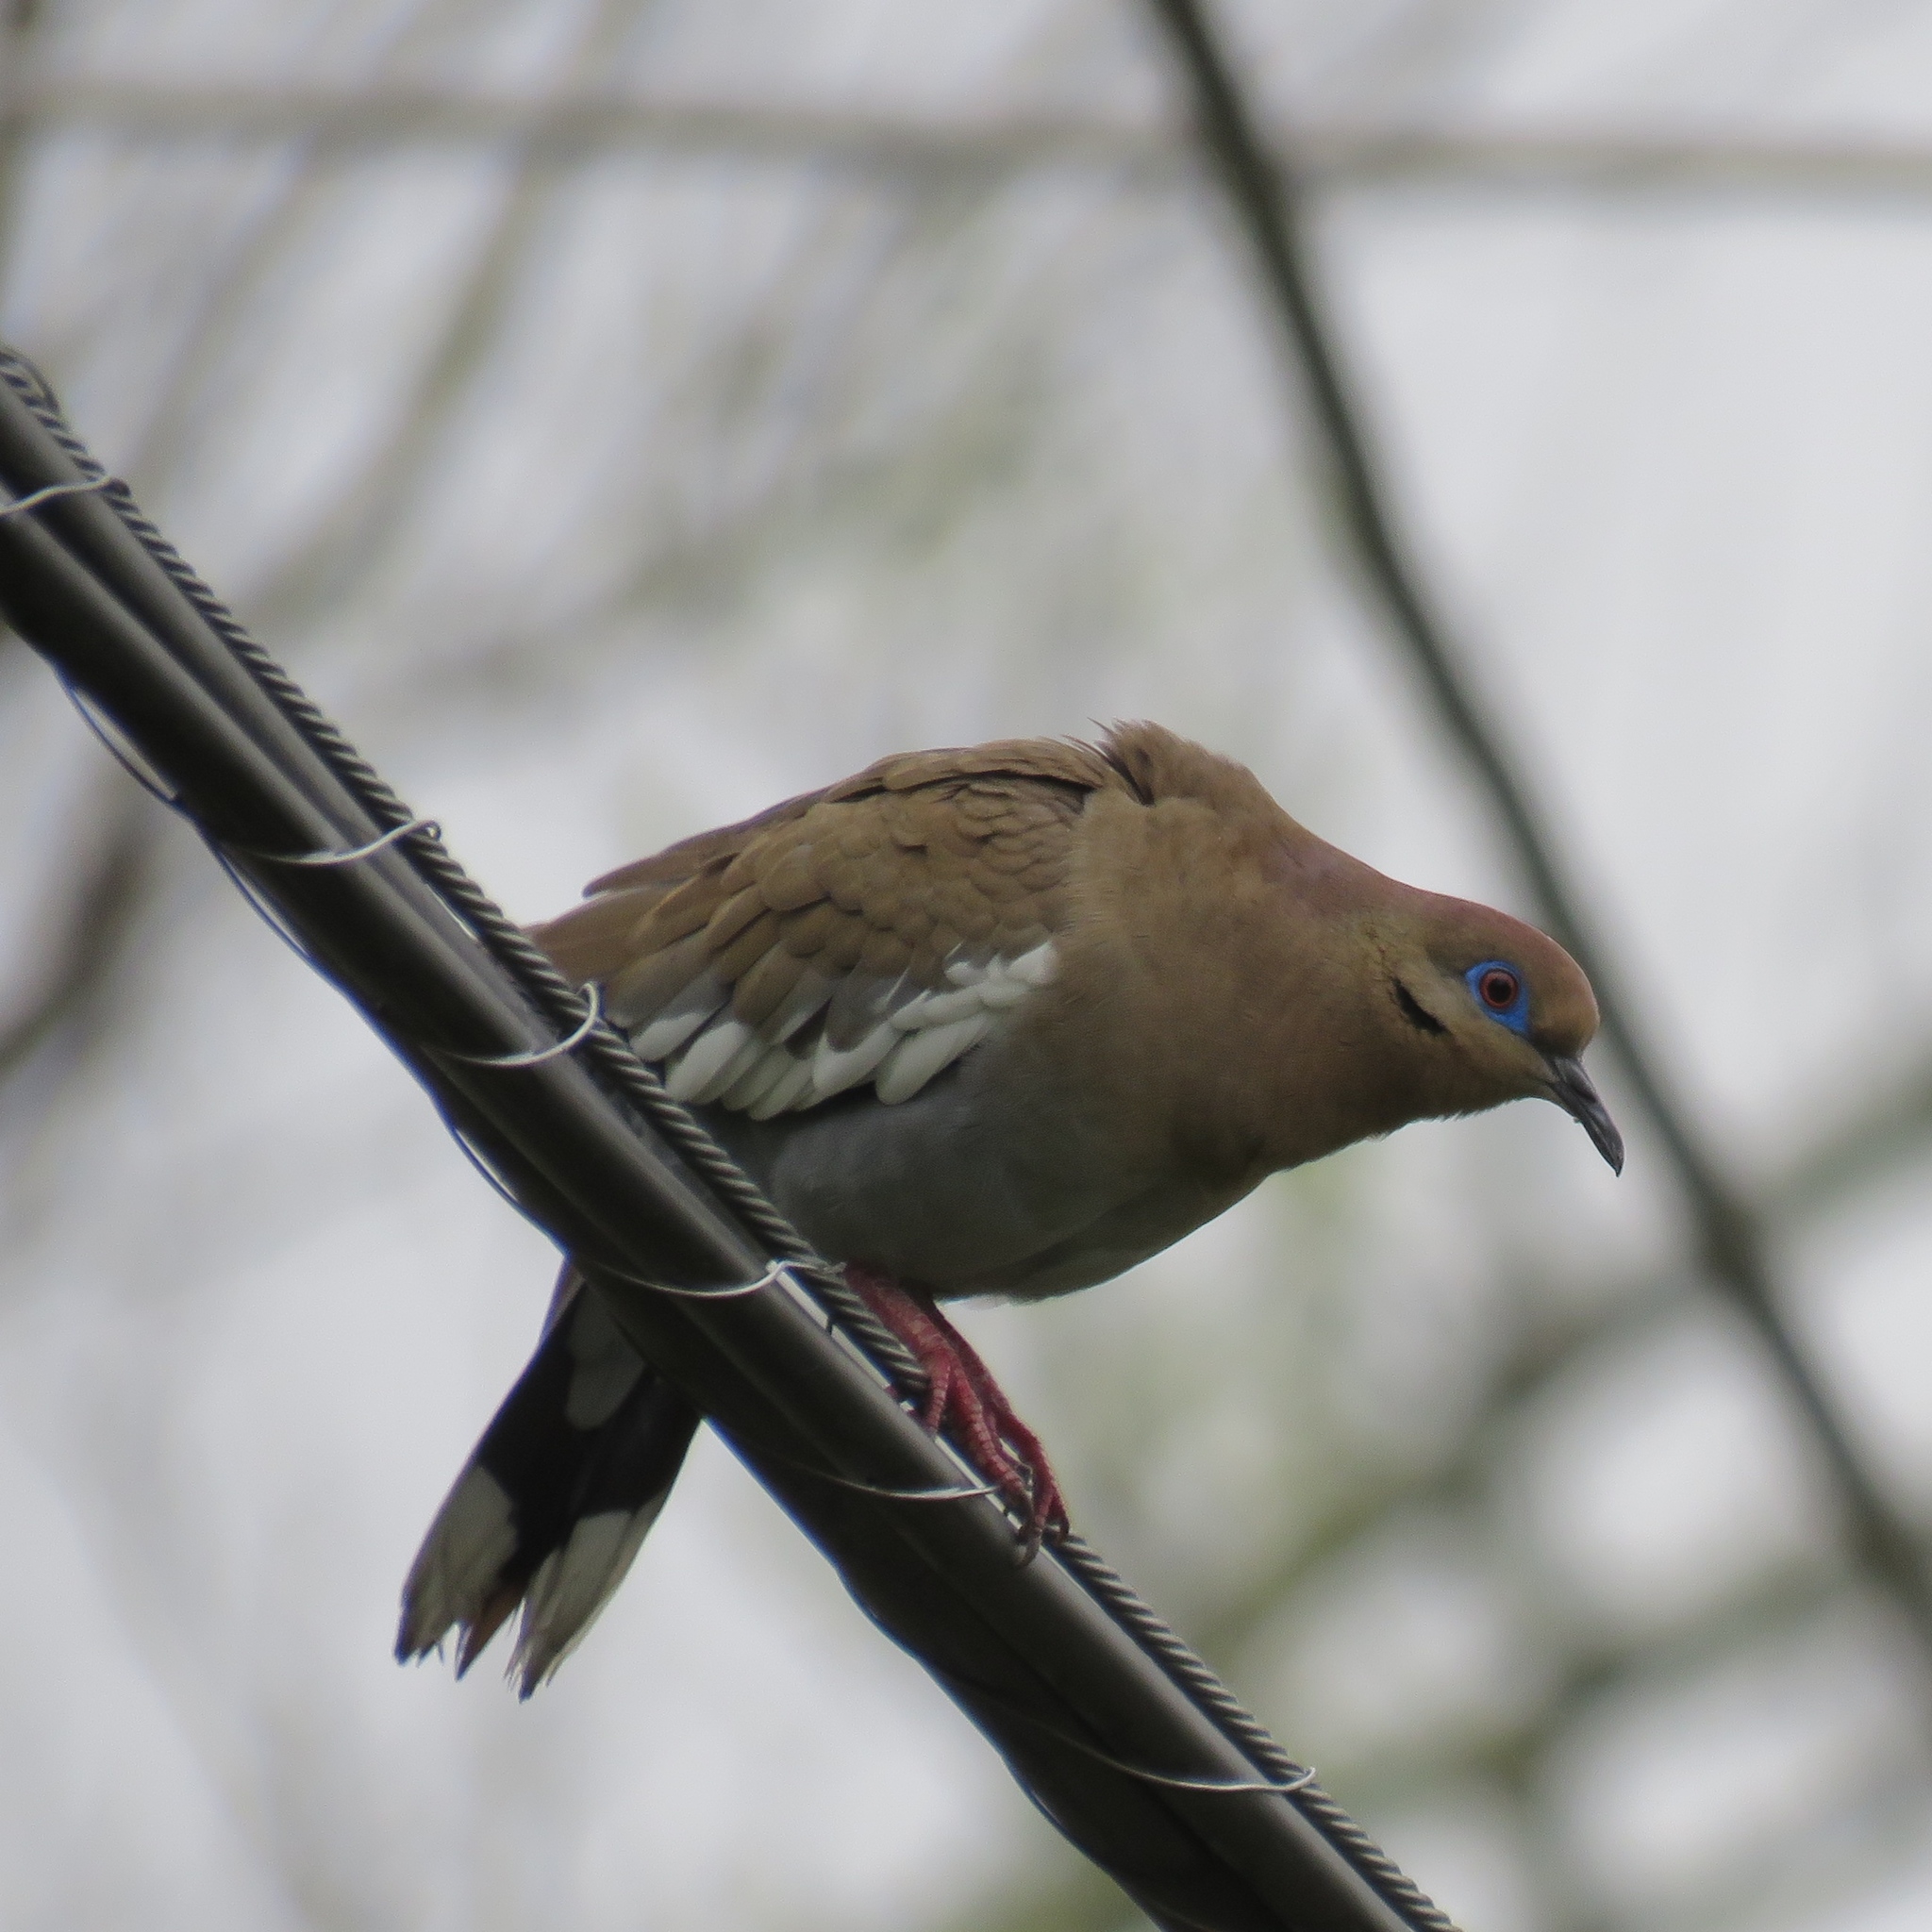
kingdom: Animalia
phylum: Chordata
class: Aves
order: Columbiformes
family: Columbidae
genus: Zenaida
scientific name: Zenaida asiatica
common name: White-winged dove
